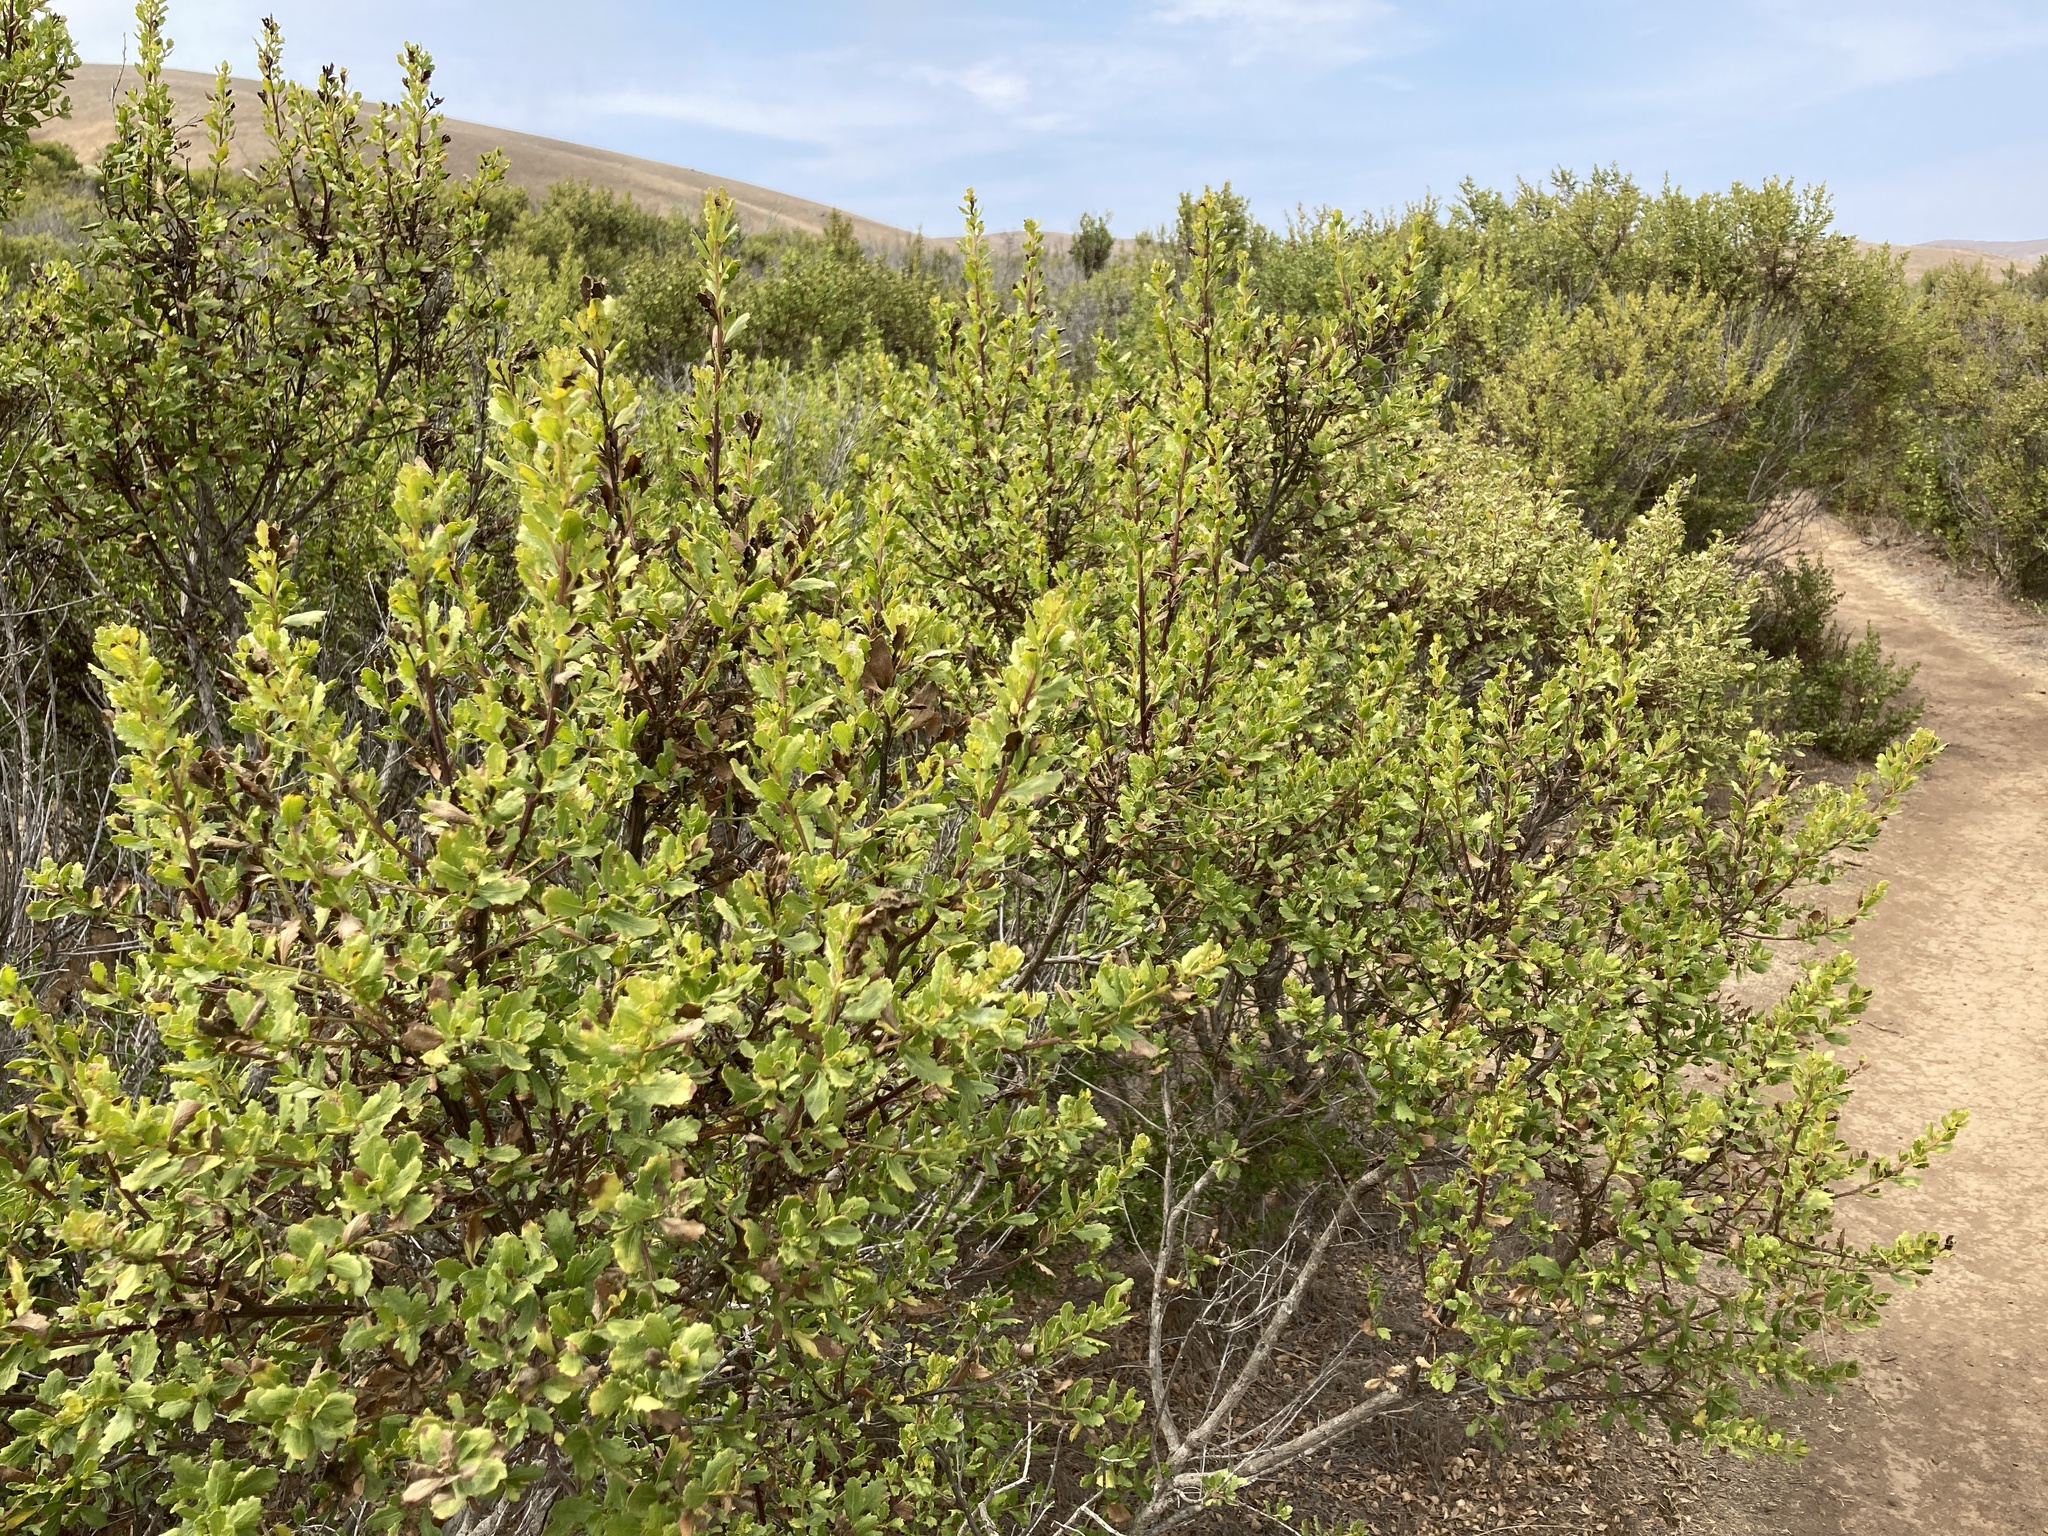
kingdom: Plantae
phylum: Tracheophyta
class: Magnoliopsida
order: Asterales
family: Asteraceae
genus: Baccharis
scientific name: Baccharis pilularis
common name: Coyotebrush
